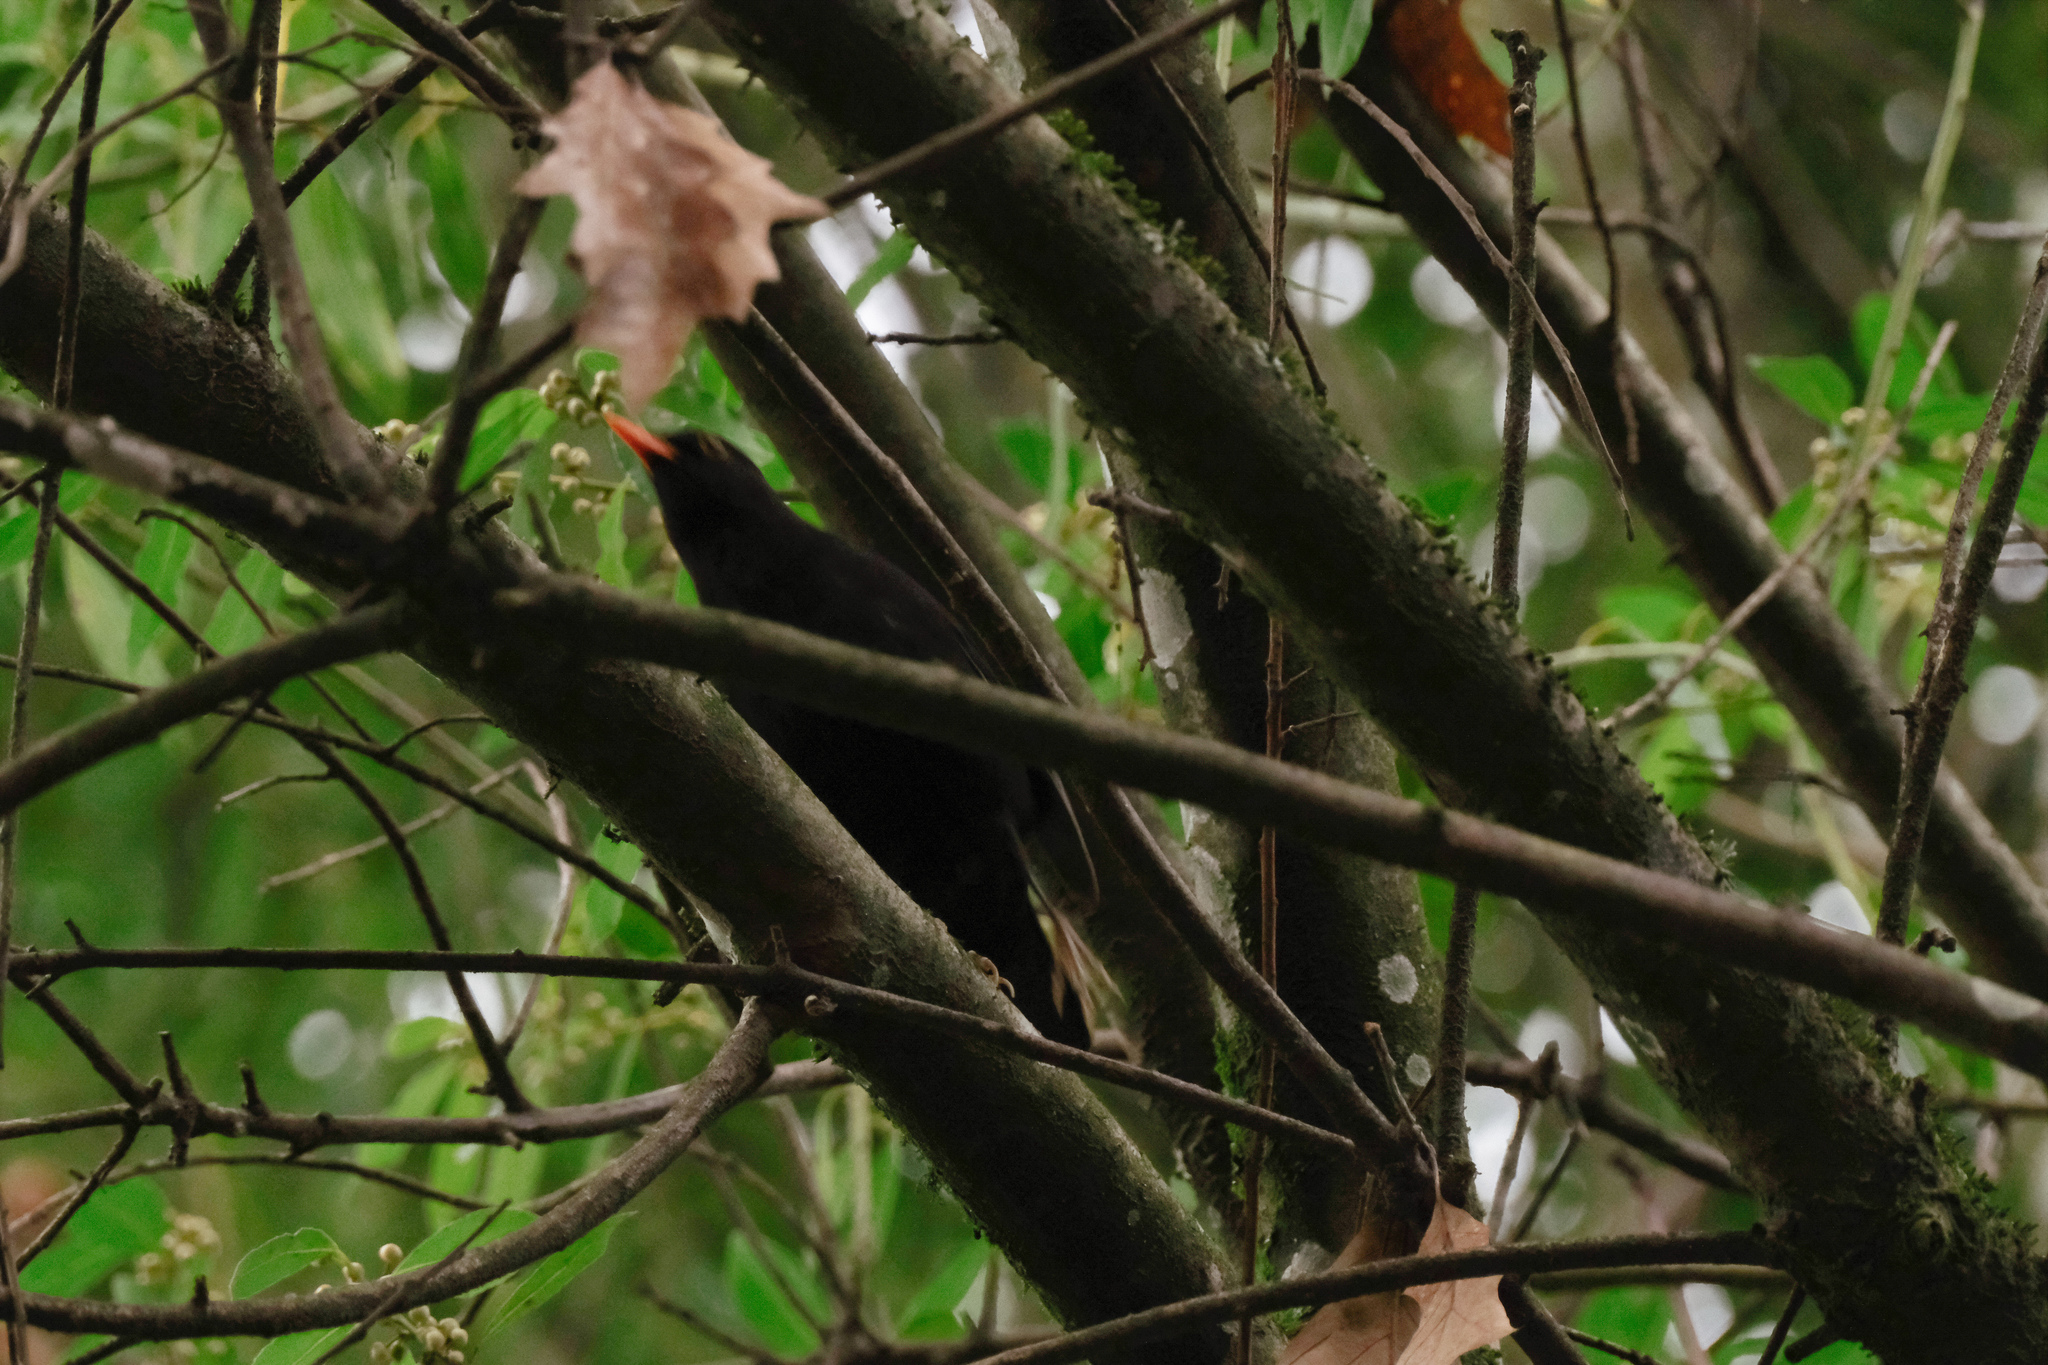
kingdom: Animalia
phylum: Chordata
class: Aves
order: Passeriformes
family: Turdidae
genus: Turdus
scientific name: Turdus merula
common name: Common blackbird
